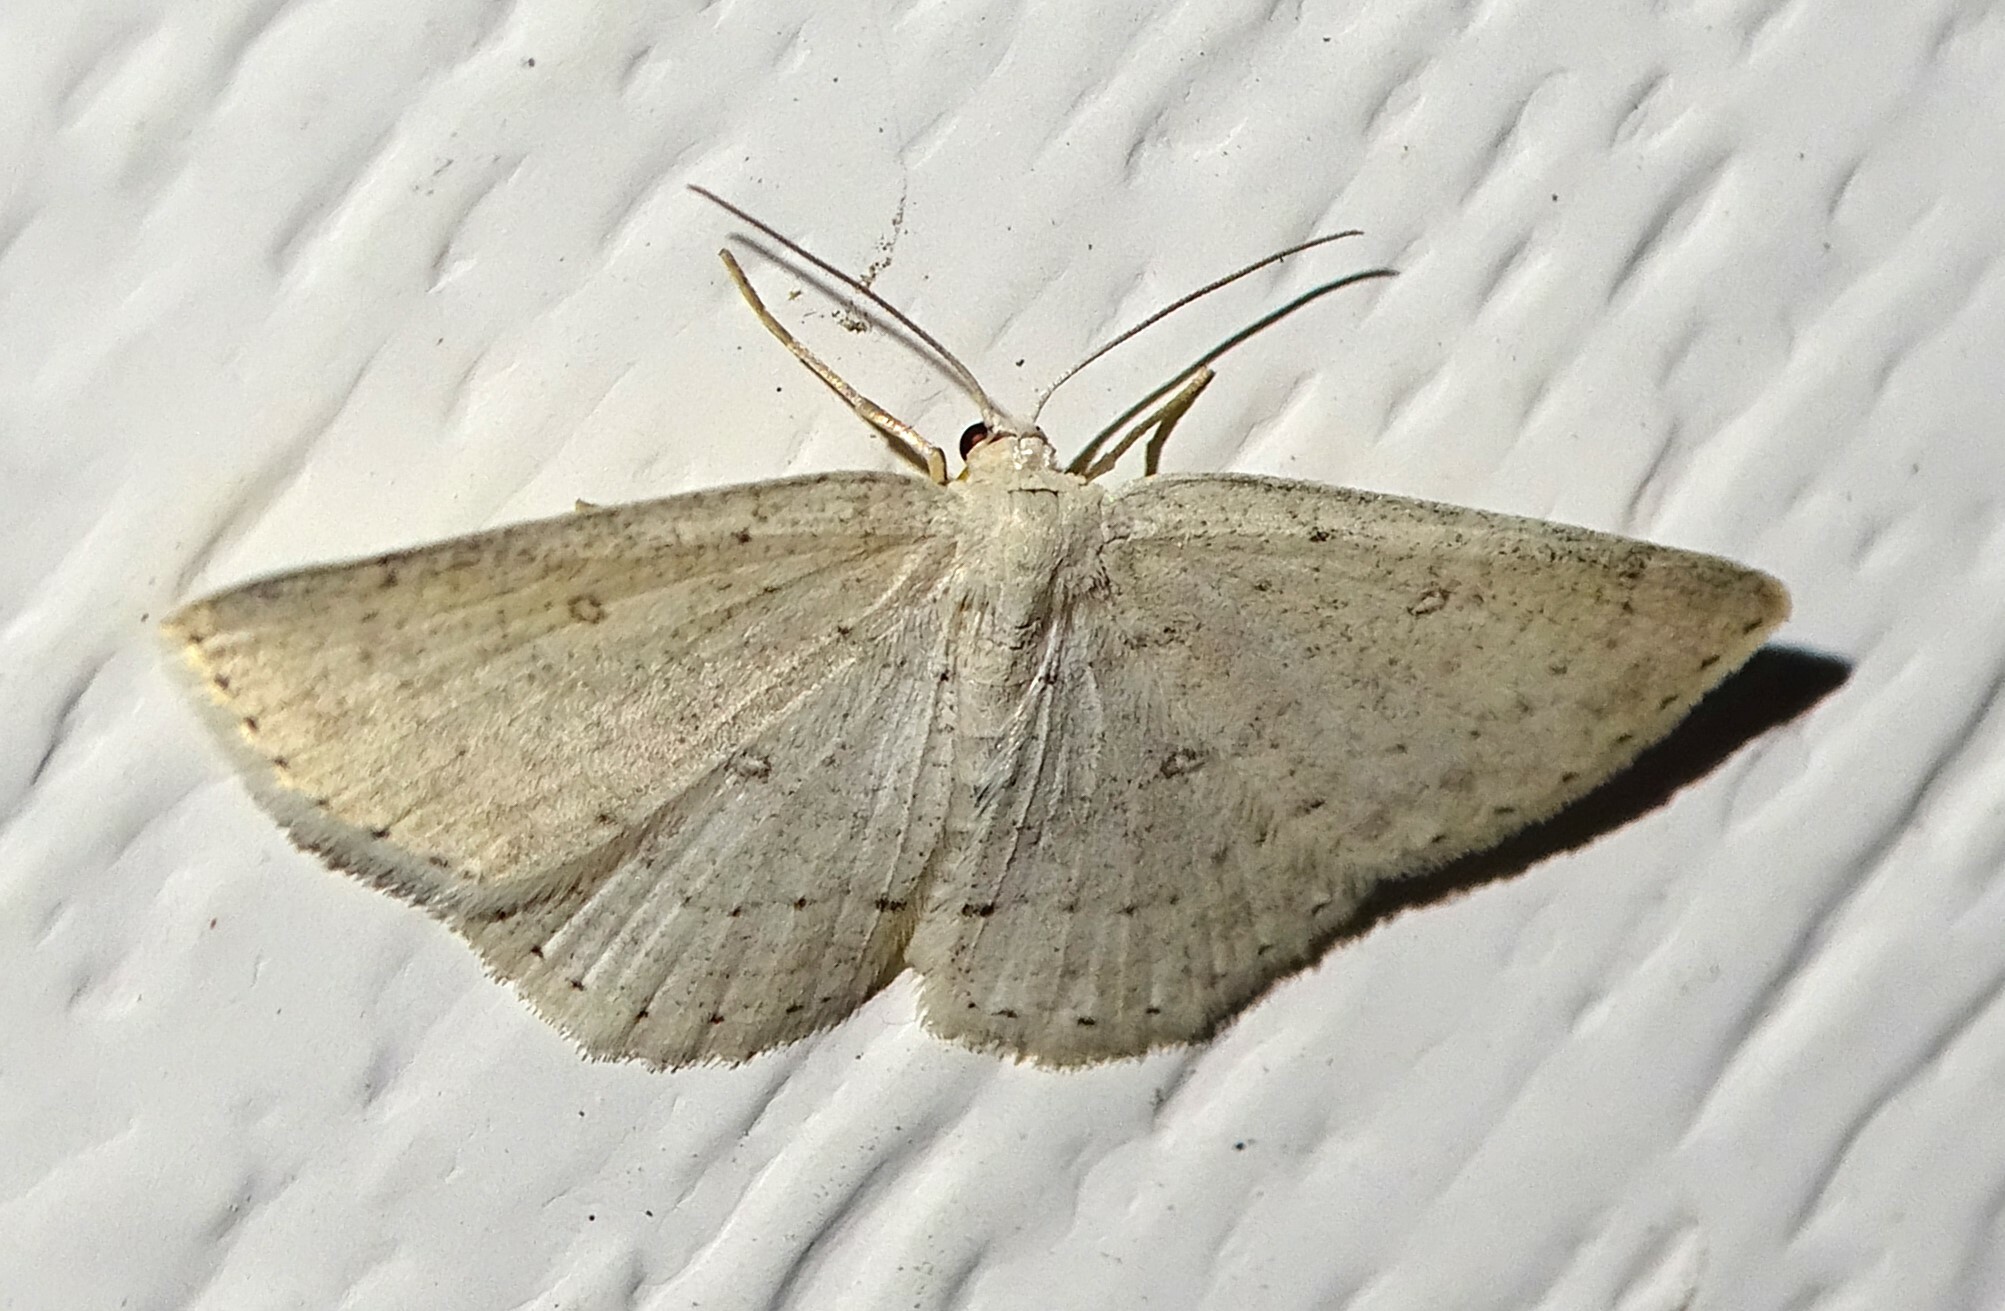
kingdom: Animalia
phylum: Arthropoda
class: Insecta
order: Lepidoptera
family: Geometridae
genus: Cyclophora
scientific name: Cyclophora pendulinaria
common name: Sweet fern geometer
